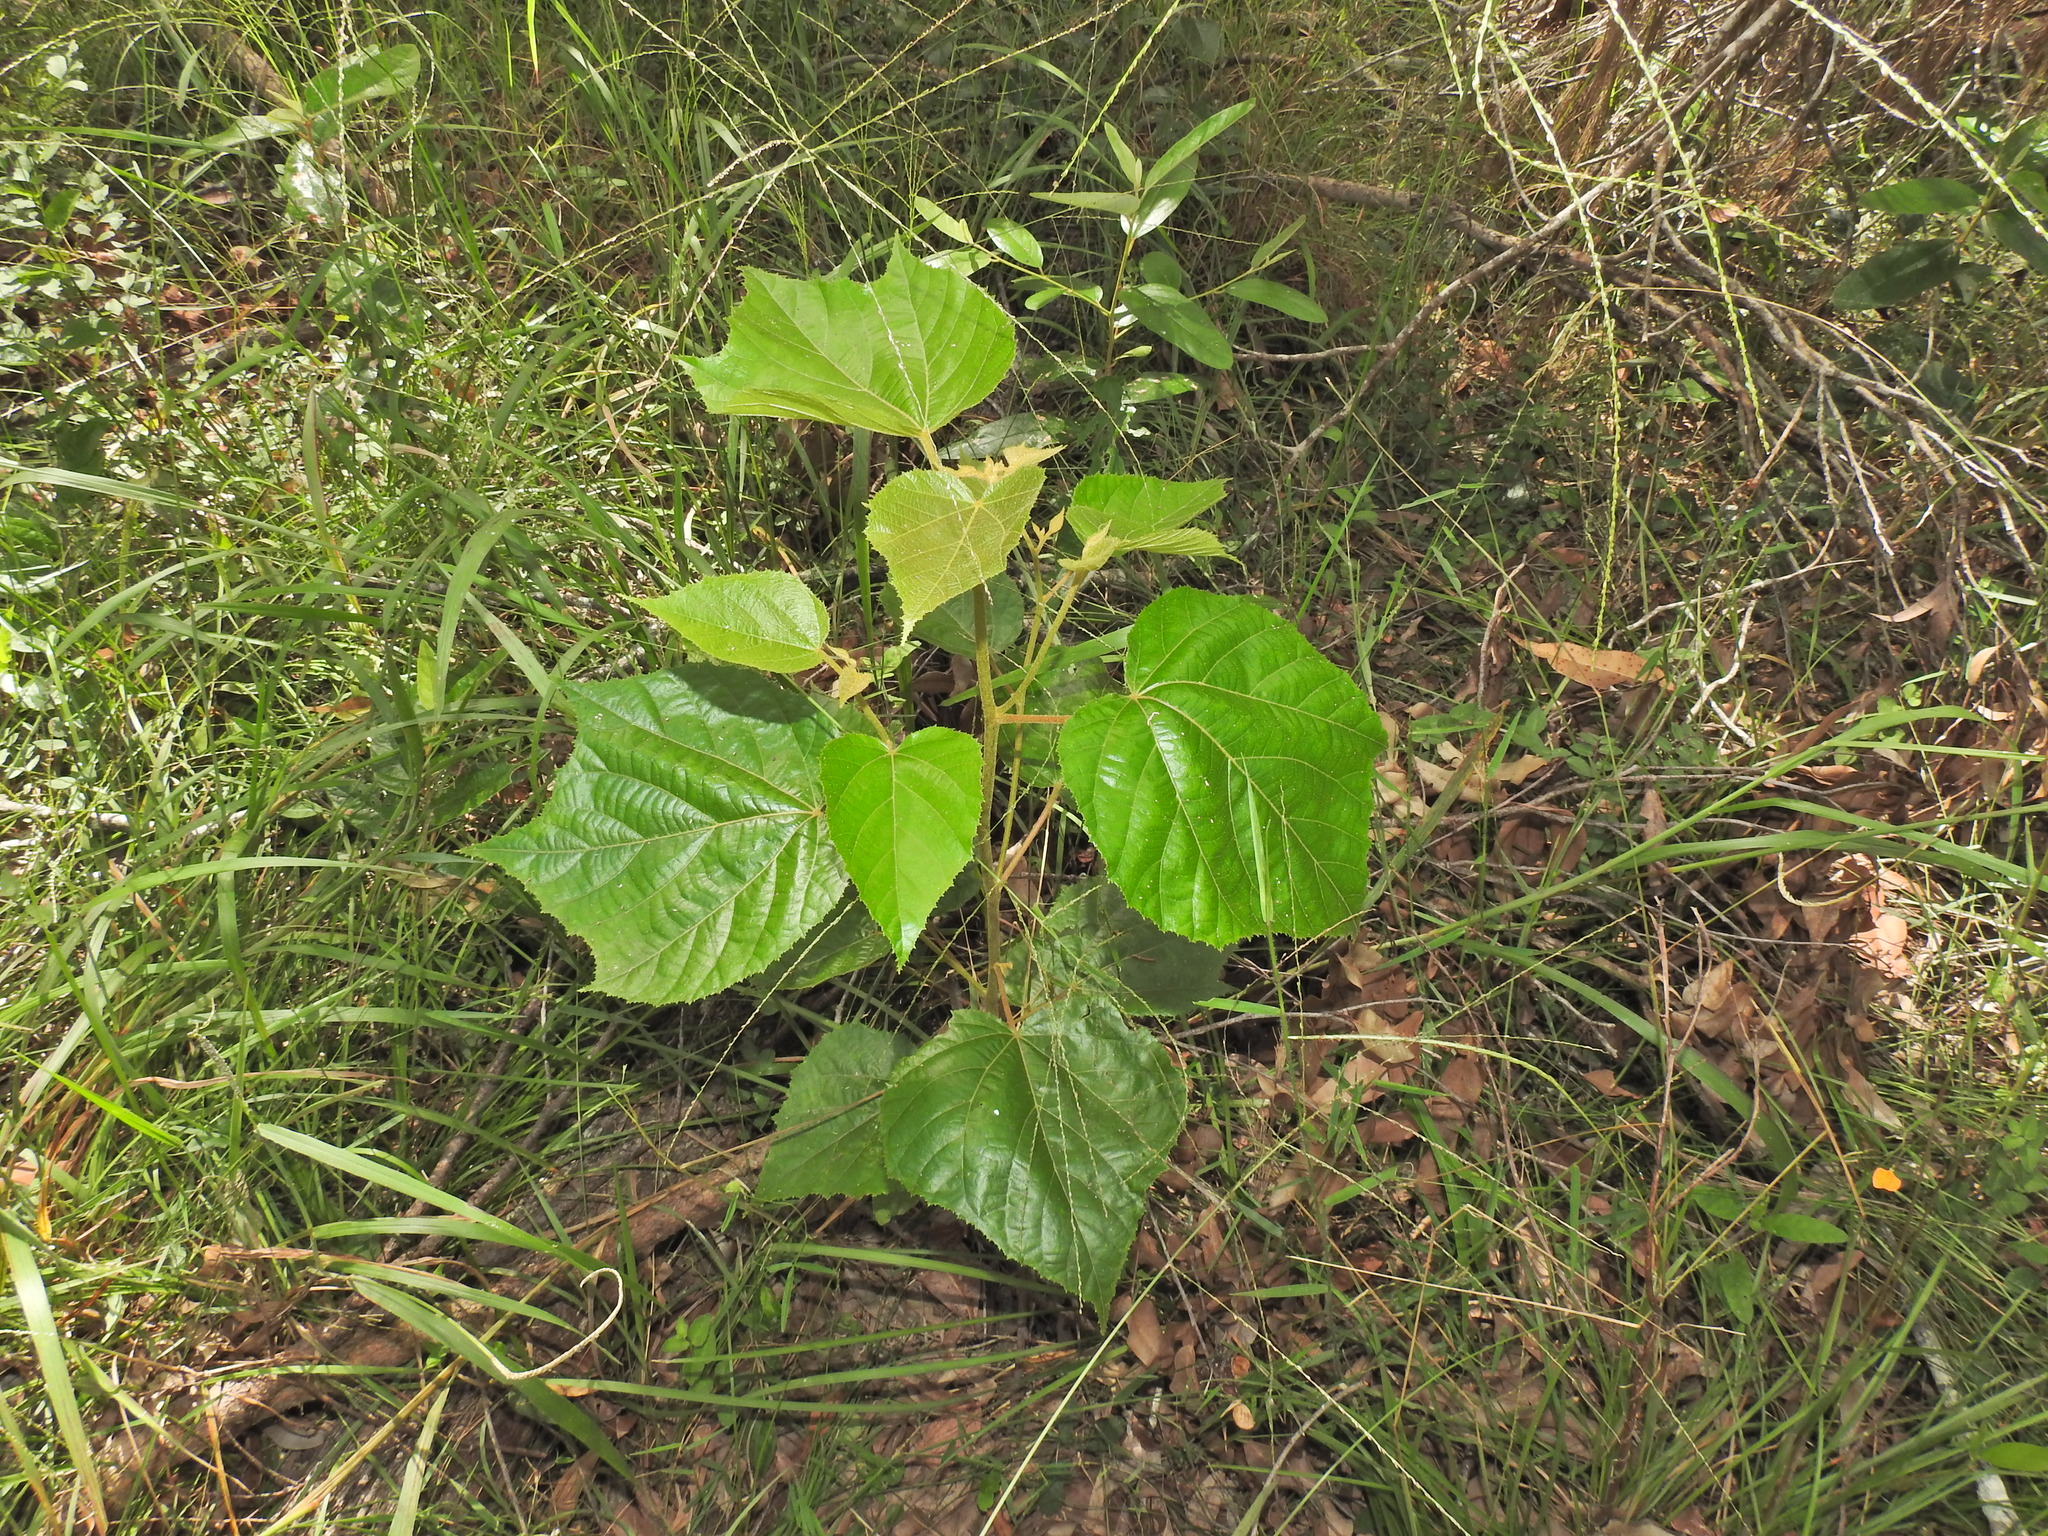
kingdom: Plantae
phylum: Tracheophyta
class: Magnoliopsida
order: Malvales
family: Malvaceae
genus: Commersonia
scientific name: Commersonia bartramia
